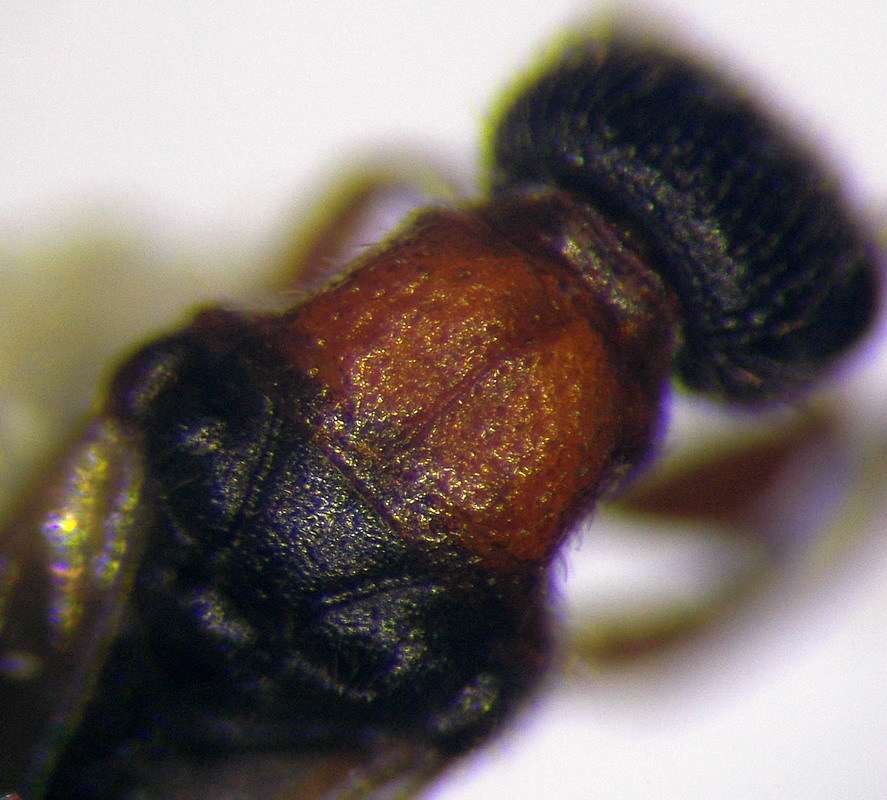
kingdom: Animalia
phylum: Arthropoda
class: Insecta
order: Hymenoptera
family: Bethylidae
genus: Gerbekas
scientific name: Gerbekas carcelii
